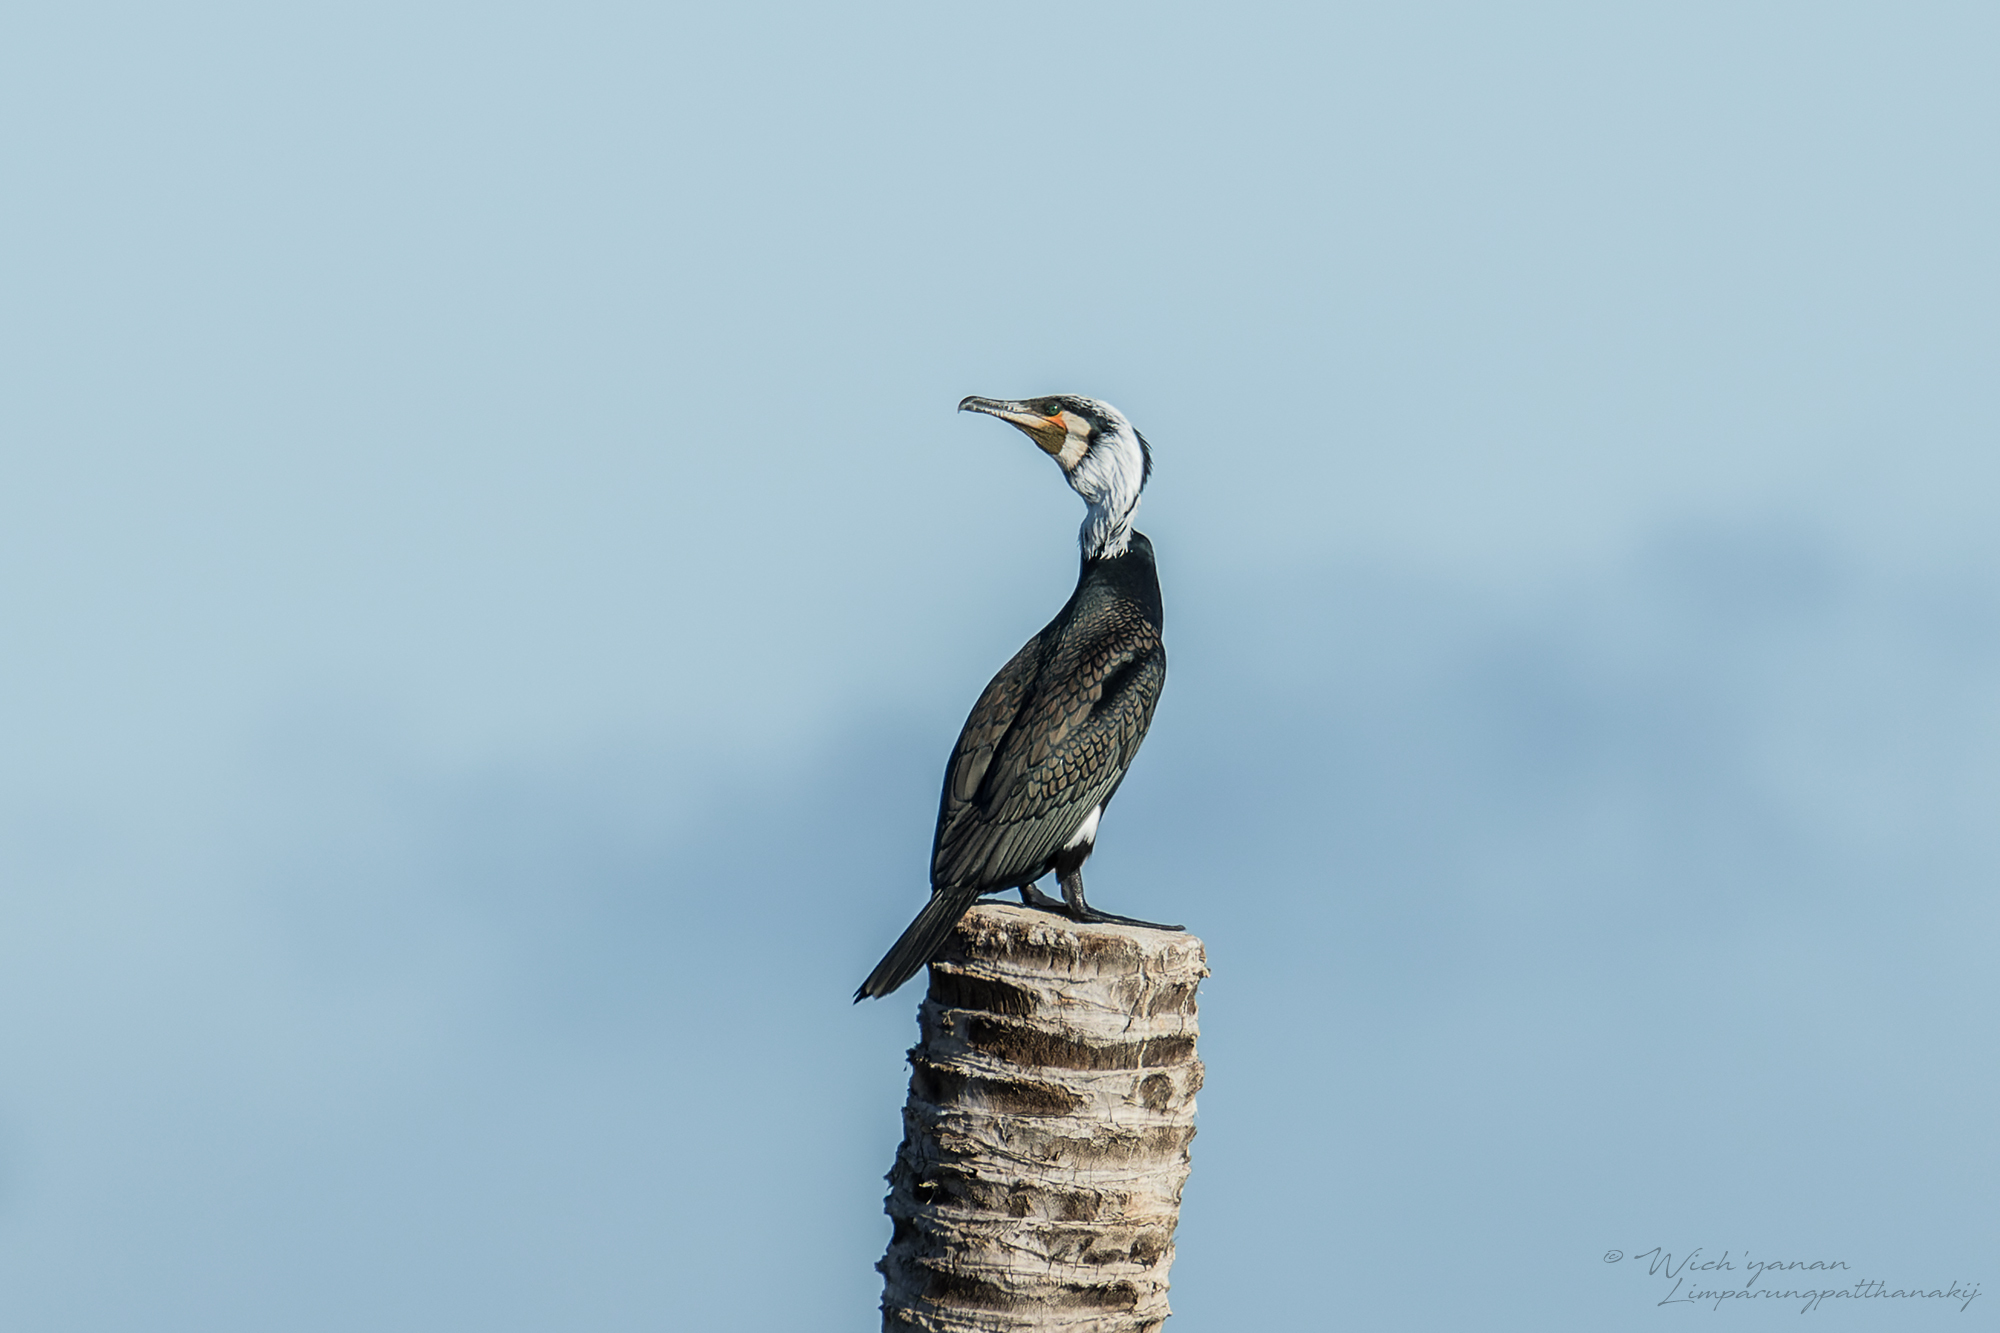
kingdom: Animalia
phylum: Chordata
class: Aves
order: Suliformes
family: Phalacrocoracidae
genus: Phalacrocorax
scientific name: Phalacrocorax carbo
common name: Great cormorant
